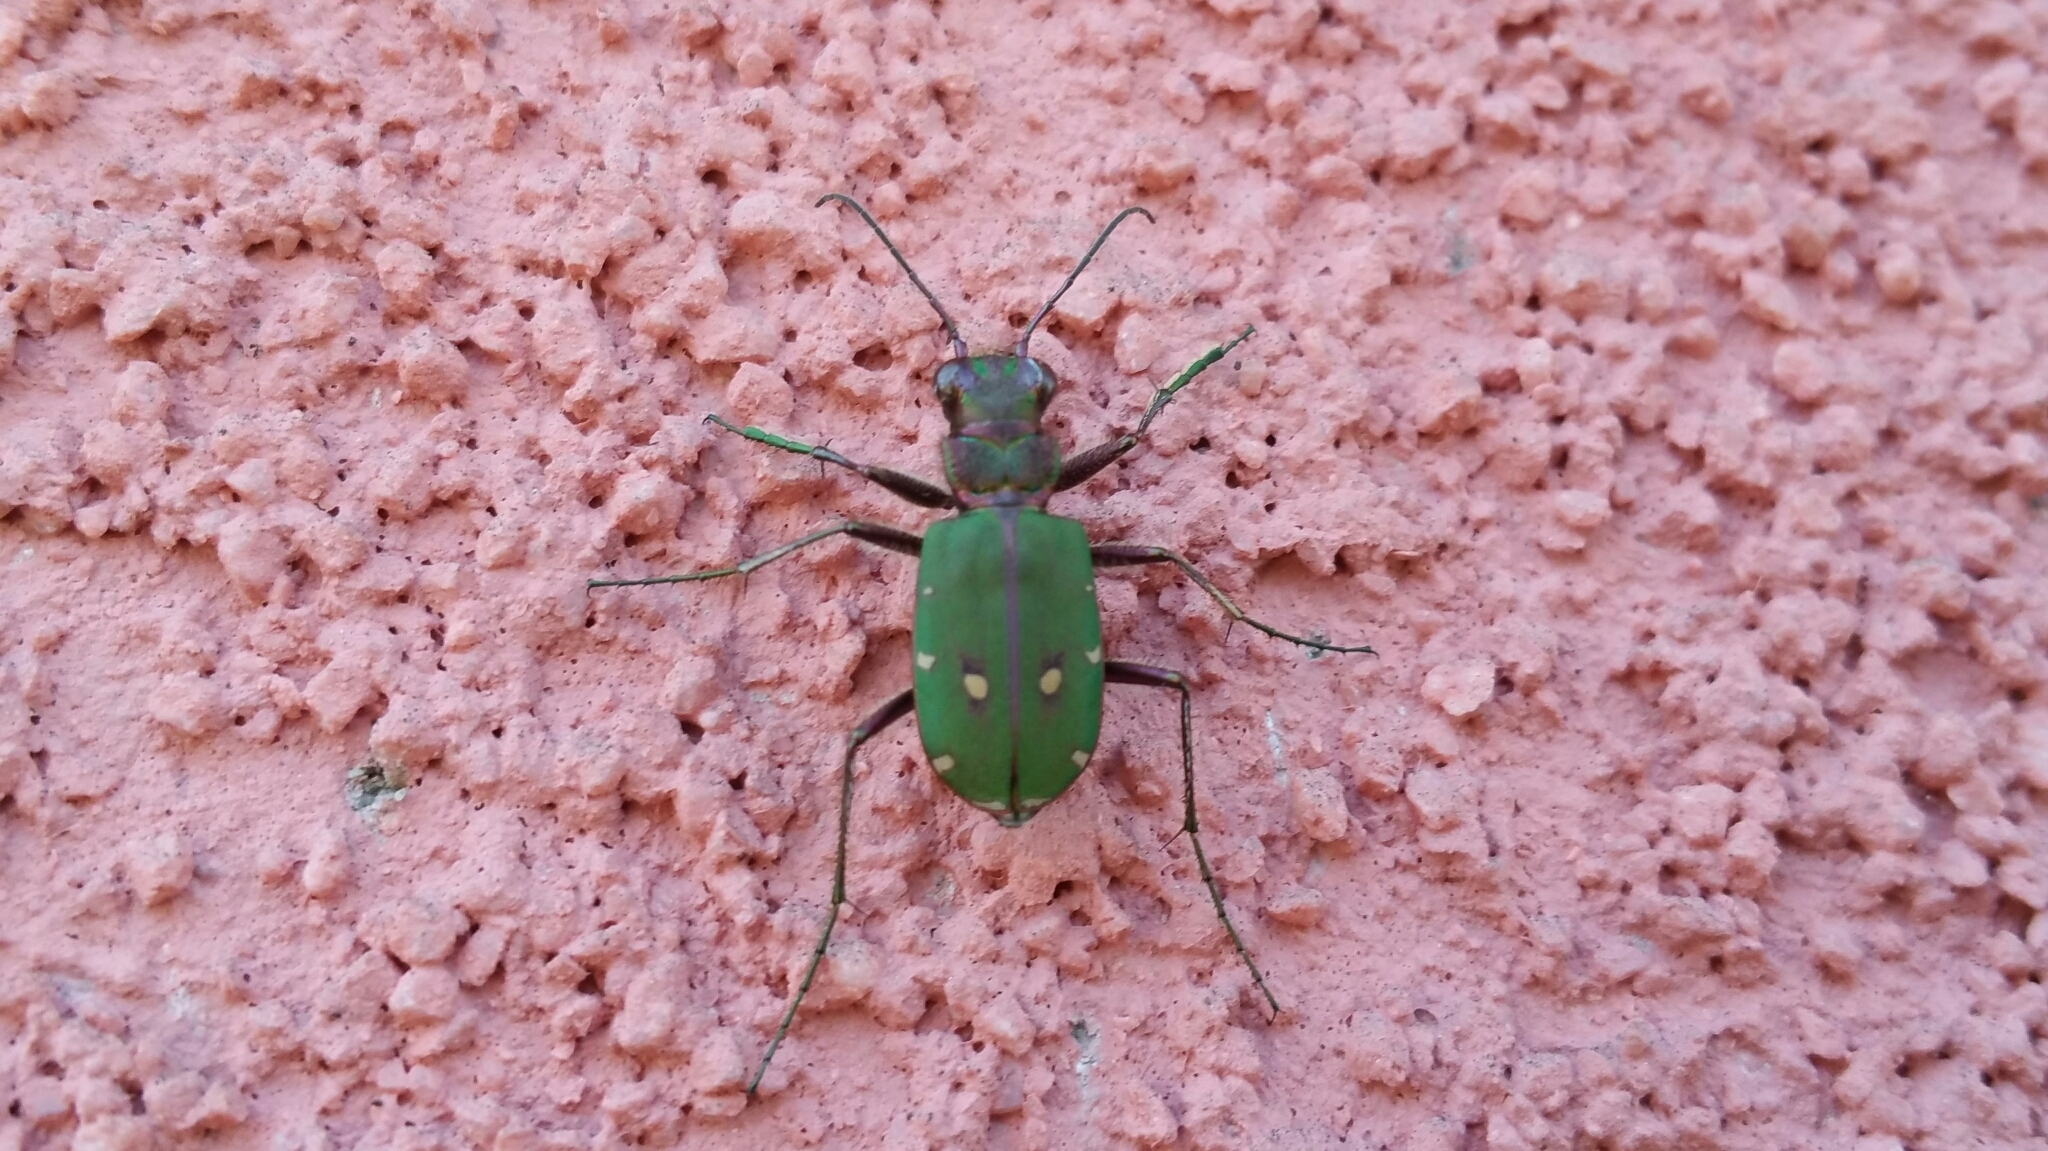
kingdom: Animalia
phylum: Arthropoda
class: Insecta
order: Coleoptera
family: Carabidae
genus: Cicindela
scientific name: Cicindela campestris
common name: Common tiger beetle
